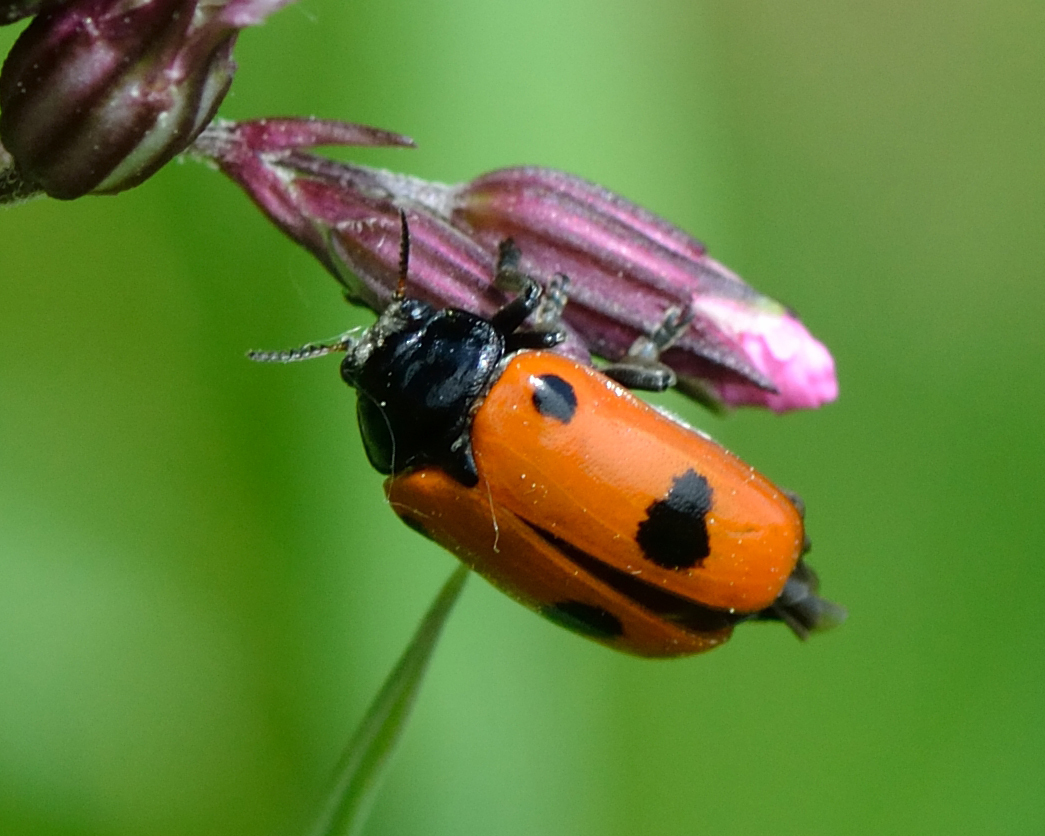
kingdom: Animalia
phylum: Arthropoda
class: Insecta
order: Coleoptera
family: Chrysomelidae
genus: Clytra
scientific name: Clytra quadripunctata
